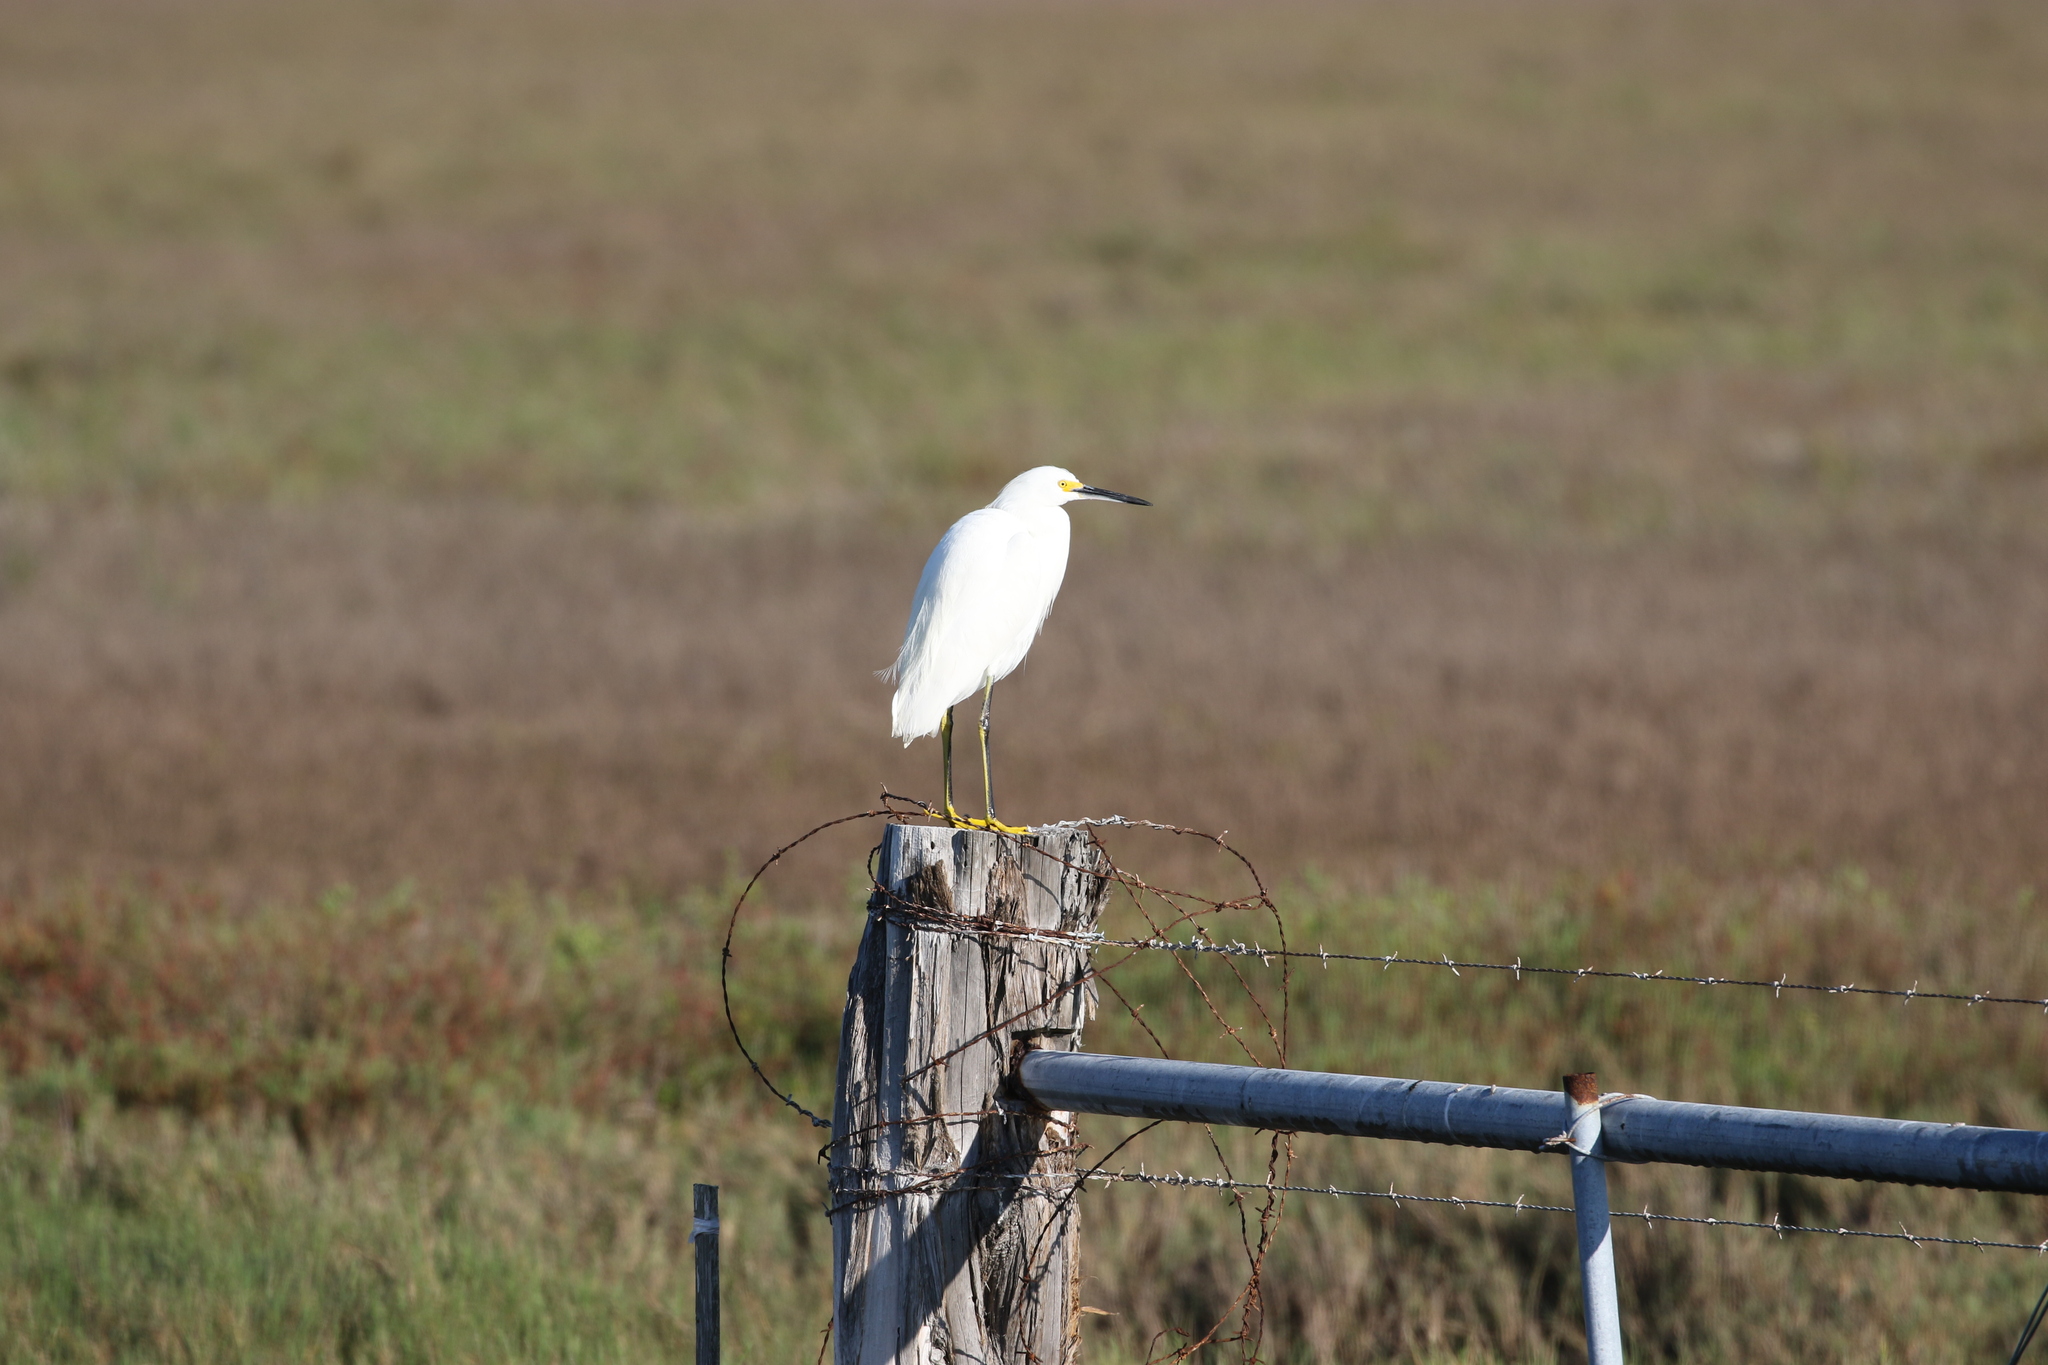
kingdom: Animalia
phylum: Chordata
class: Aves
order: Pelecaniformes
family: Ardeidae
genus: Egretta
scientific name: Egretta thula
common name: Snowy egret
